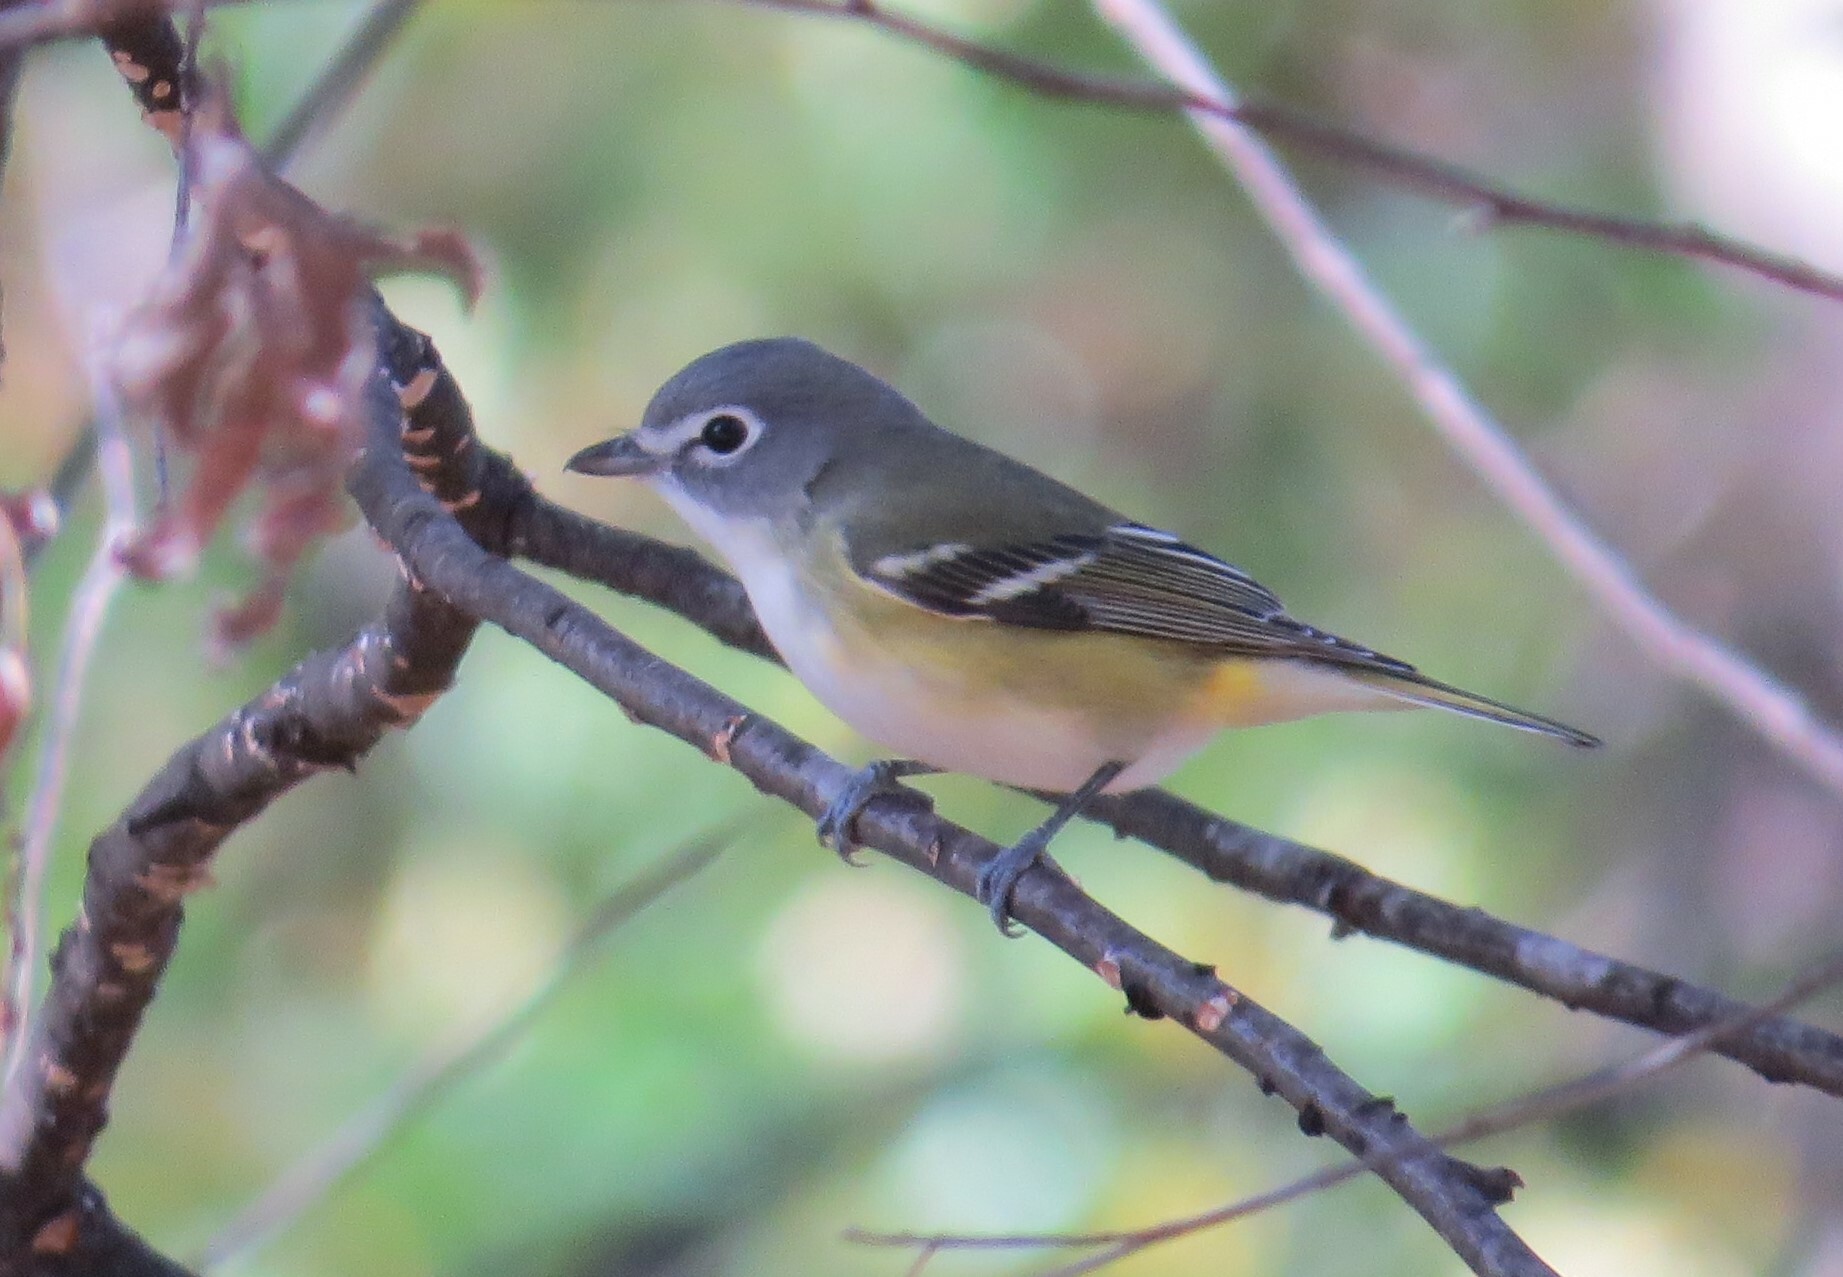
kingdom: Animalia
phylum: Chordata
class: Aves
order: Passeriformes
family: Vireonidae
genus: Vireo
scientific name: Vireo solitarius
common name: Blue-headed vireo
